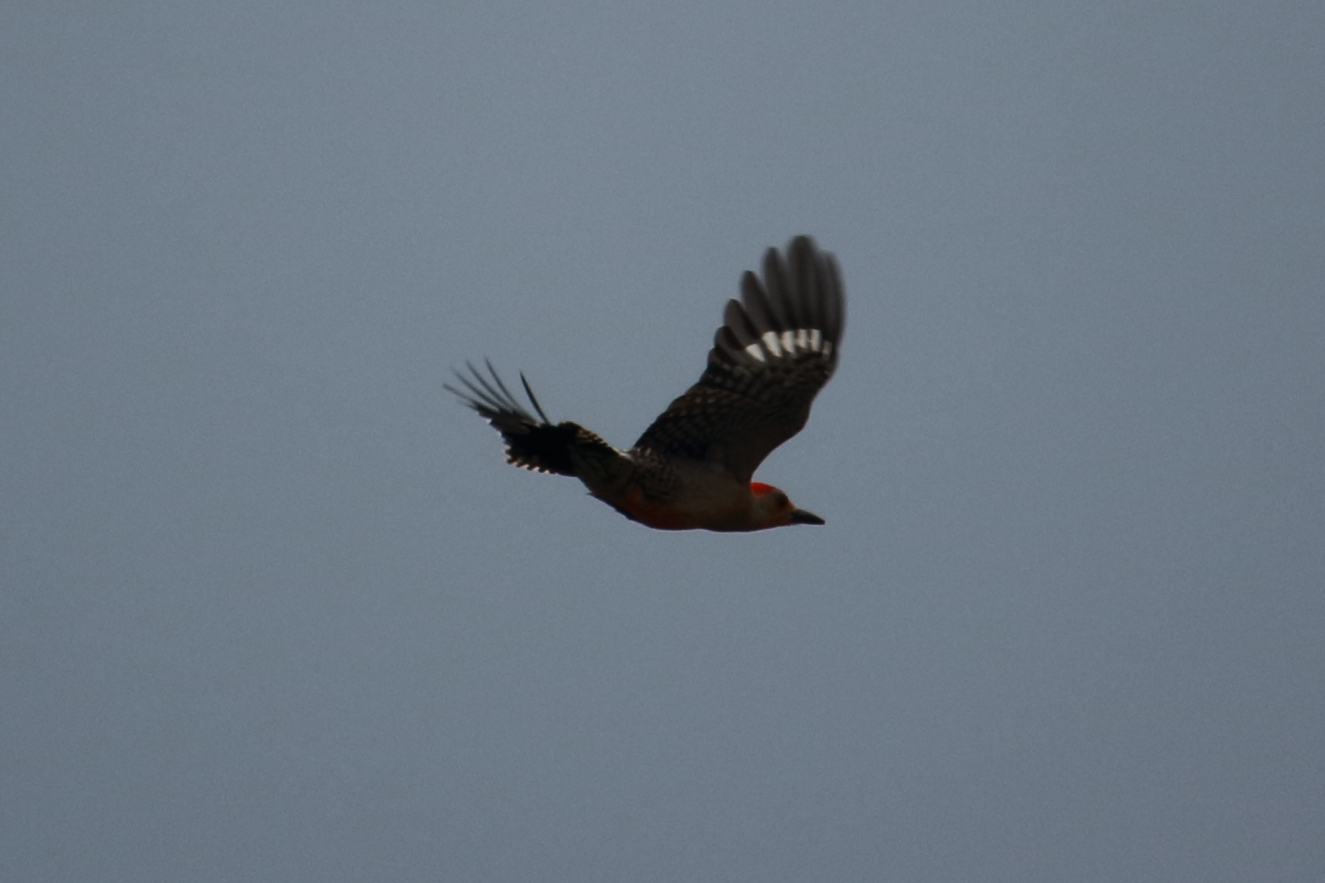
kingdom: Animalia
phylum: Chordata
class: Aves
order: Piciformes
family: Picidae
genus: Melanerpes
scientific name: Melanerpes carolinus
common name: Red-bellied woodpecker
